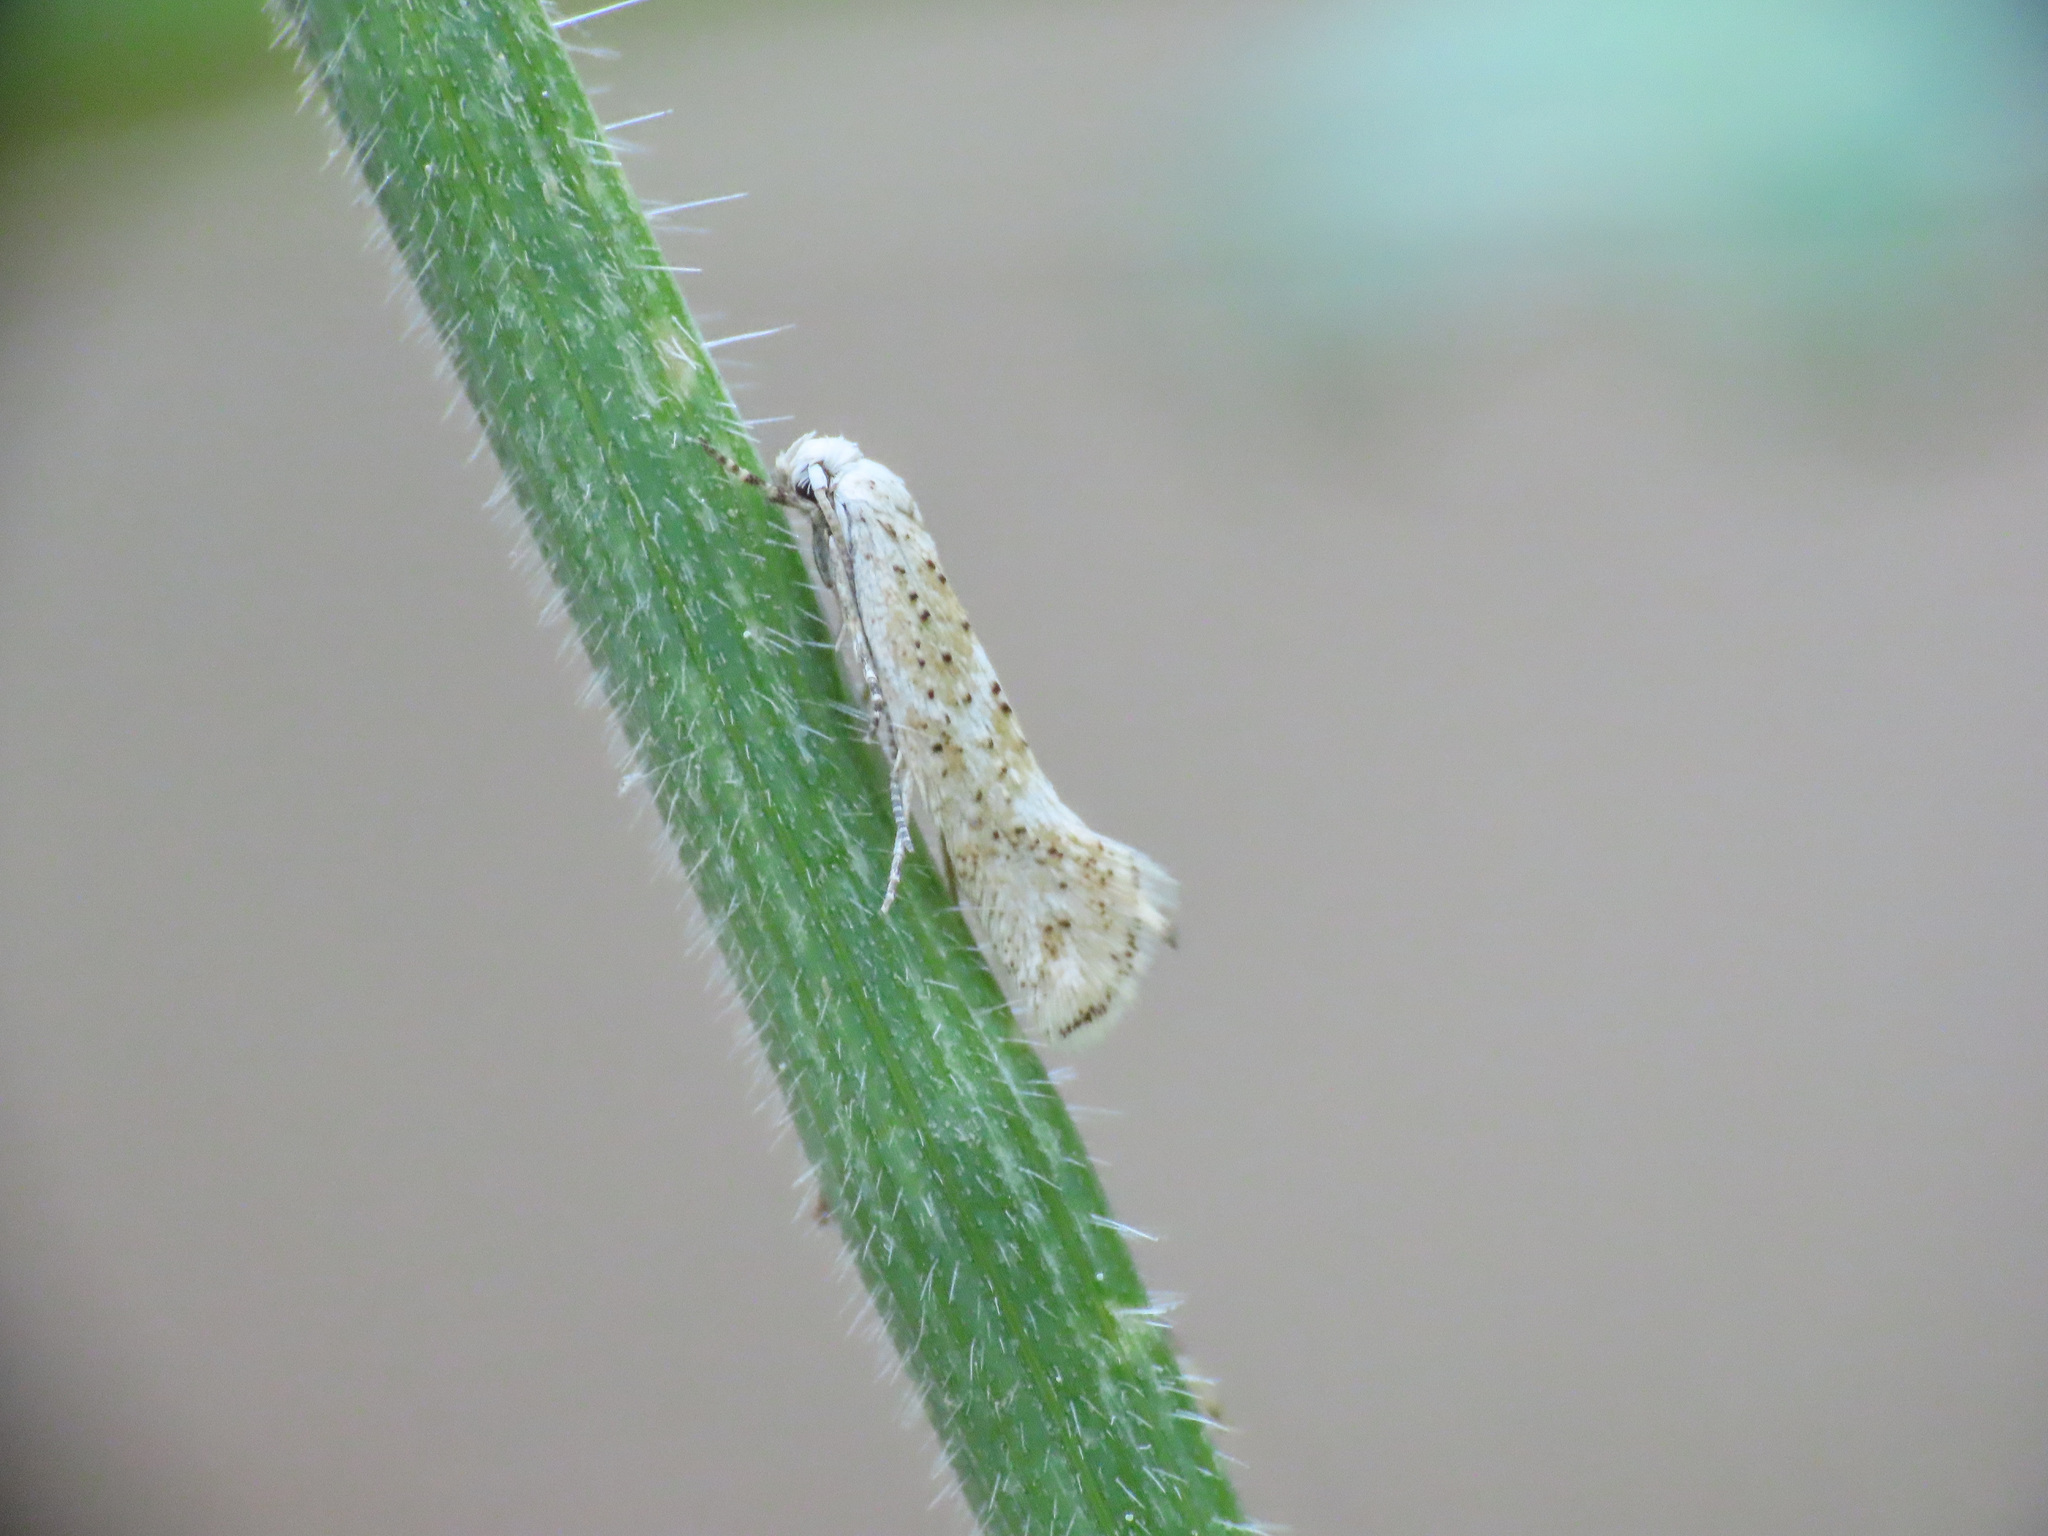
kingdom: Animalia
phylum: Arthropoda
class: Insecta
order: Lepidoptera
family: Elachistidae
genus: Elachista
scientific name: Elachista pollinariella
